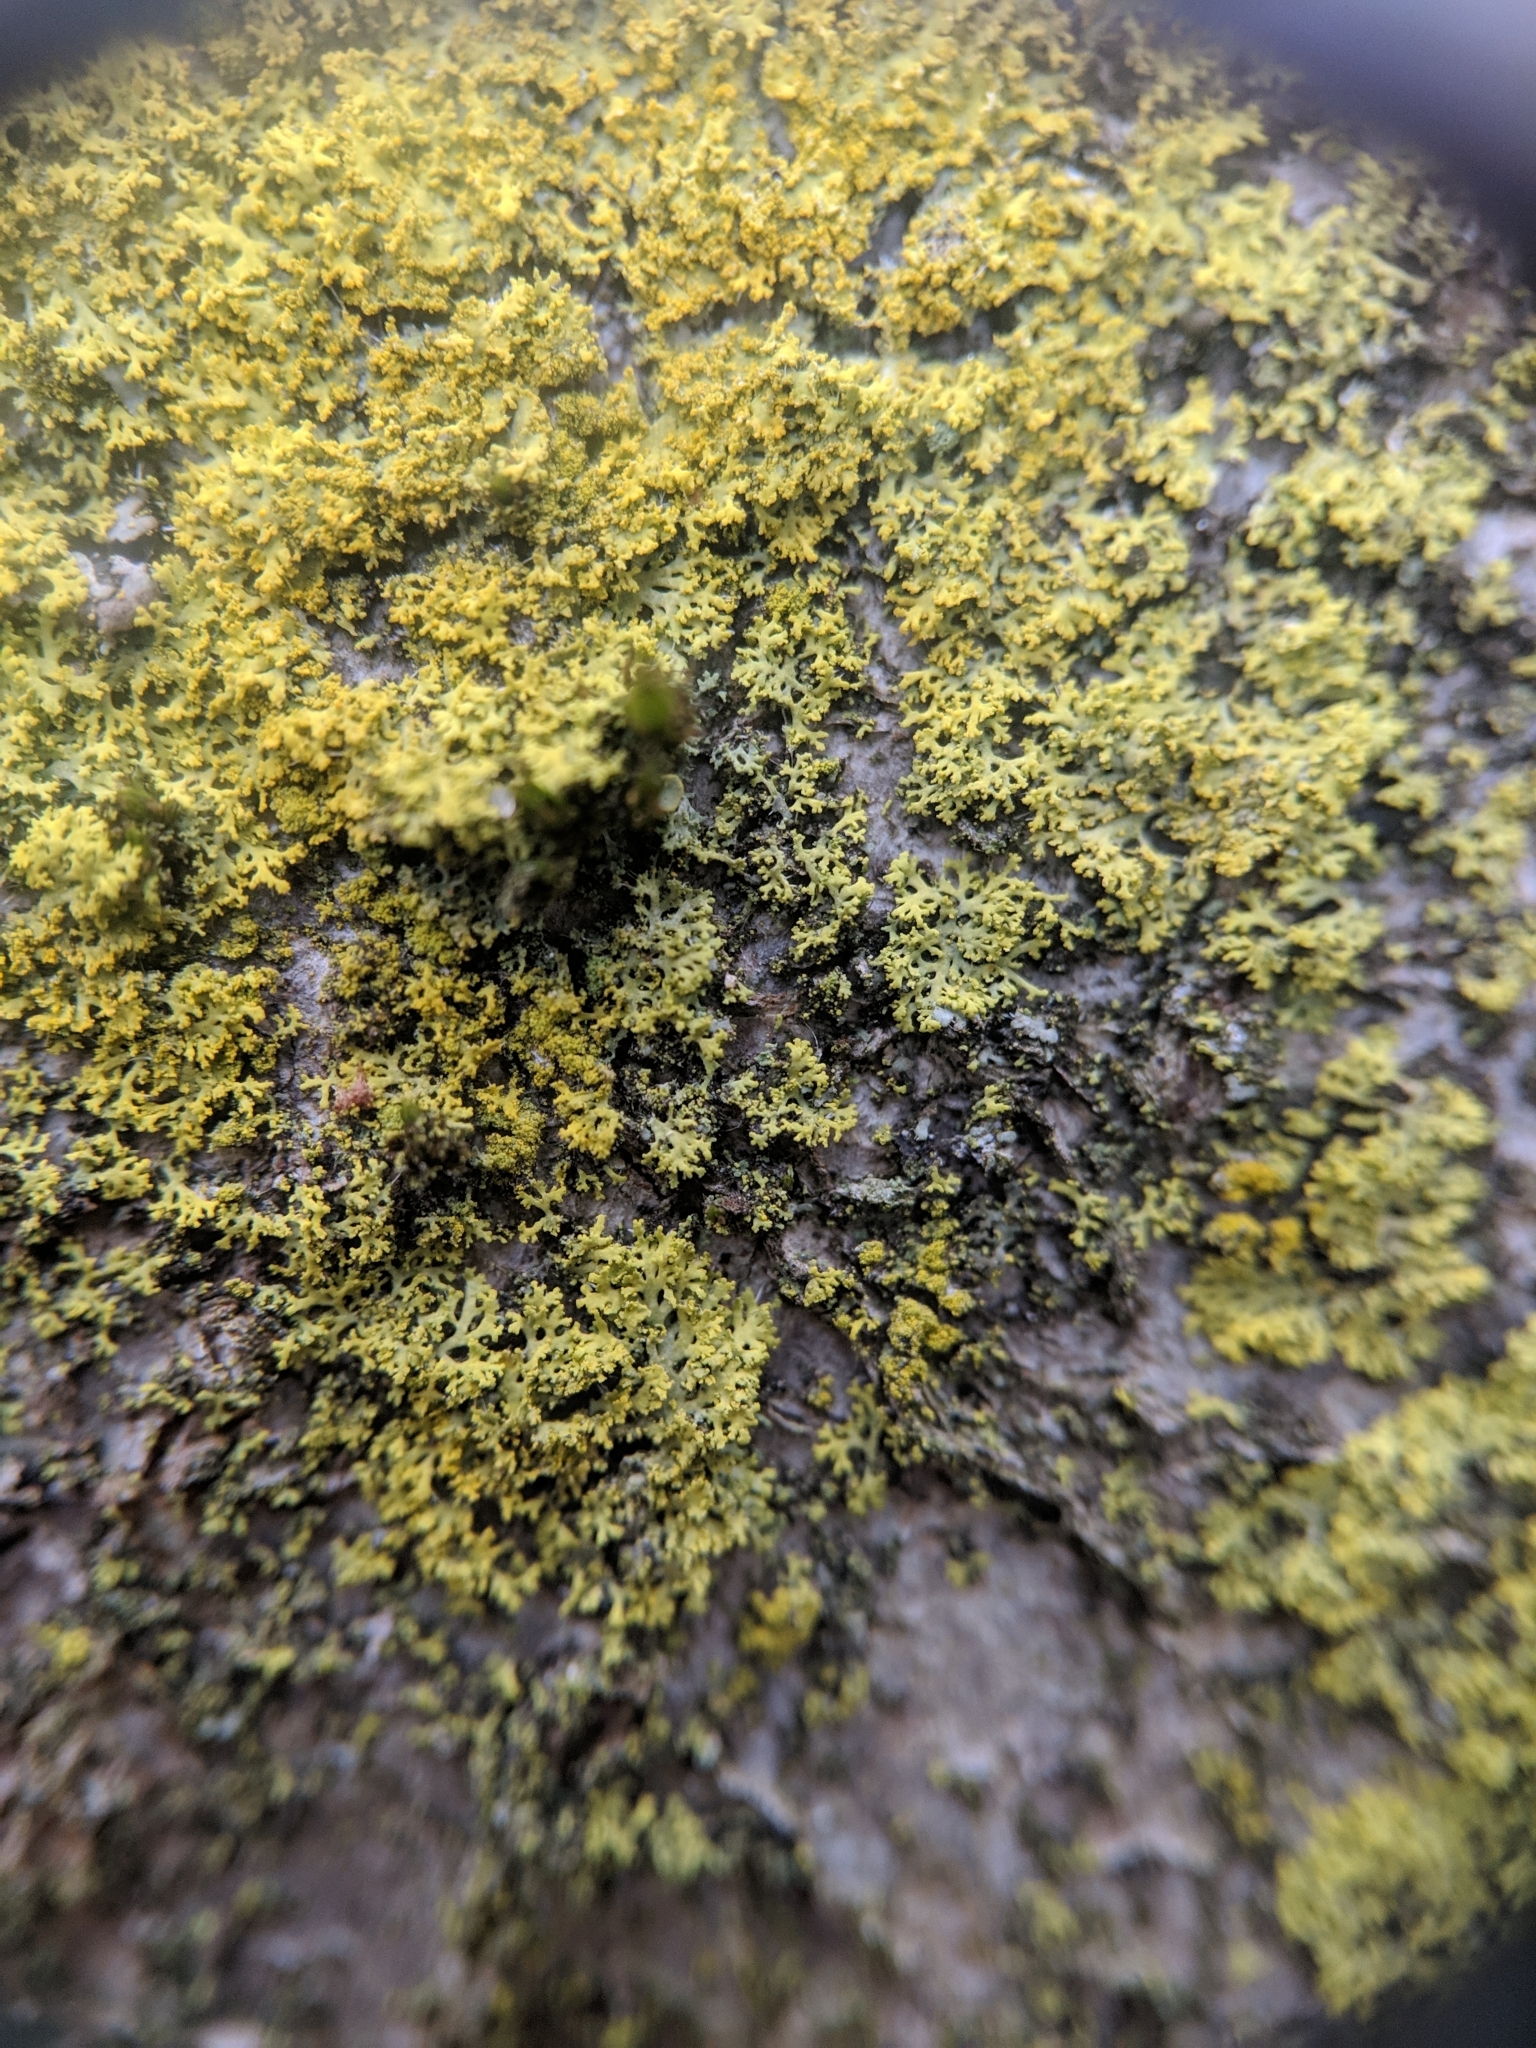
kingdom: Fungi
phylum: Ascomycota
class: Candelariomycetes
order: Candelariales
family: Candelariaceae
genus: Candelaria
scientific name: Candelaria pacifica
